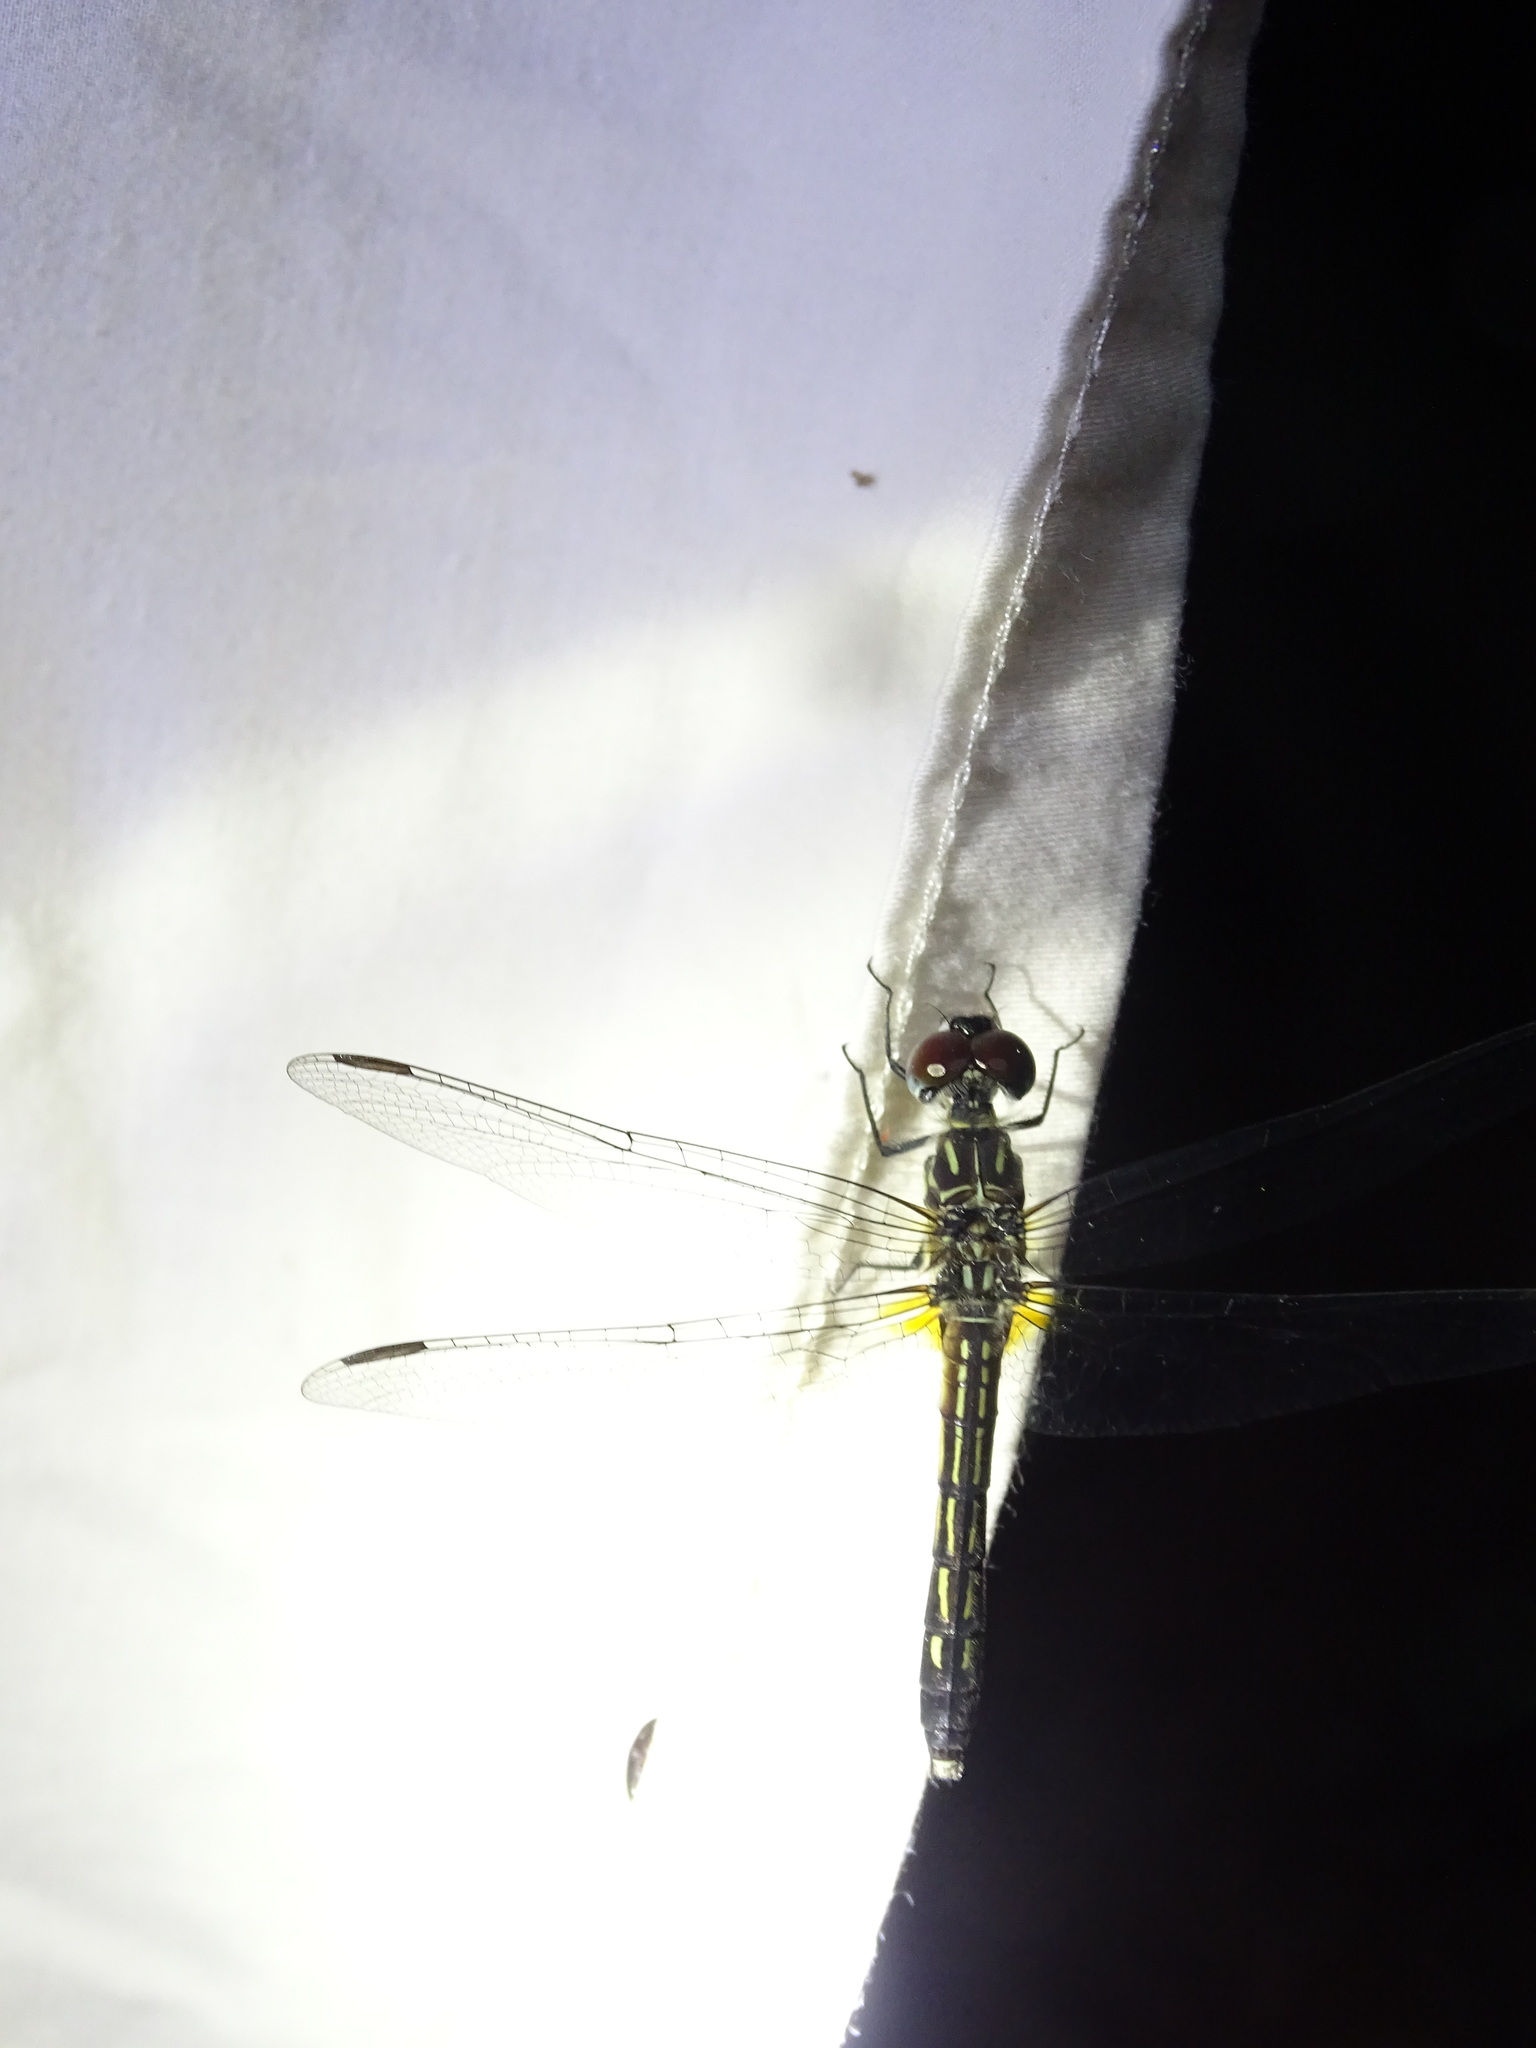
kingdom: Animalia
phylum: Arthropoda
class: Insecta
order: Odonata
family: Libellulidae
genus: Pachydiplax
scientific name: Pachydiplax longipennis
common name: Blue dasher
